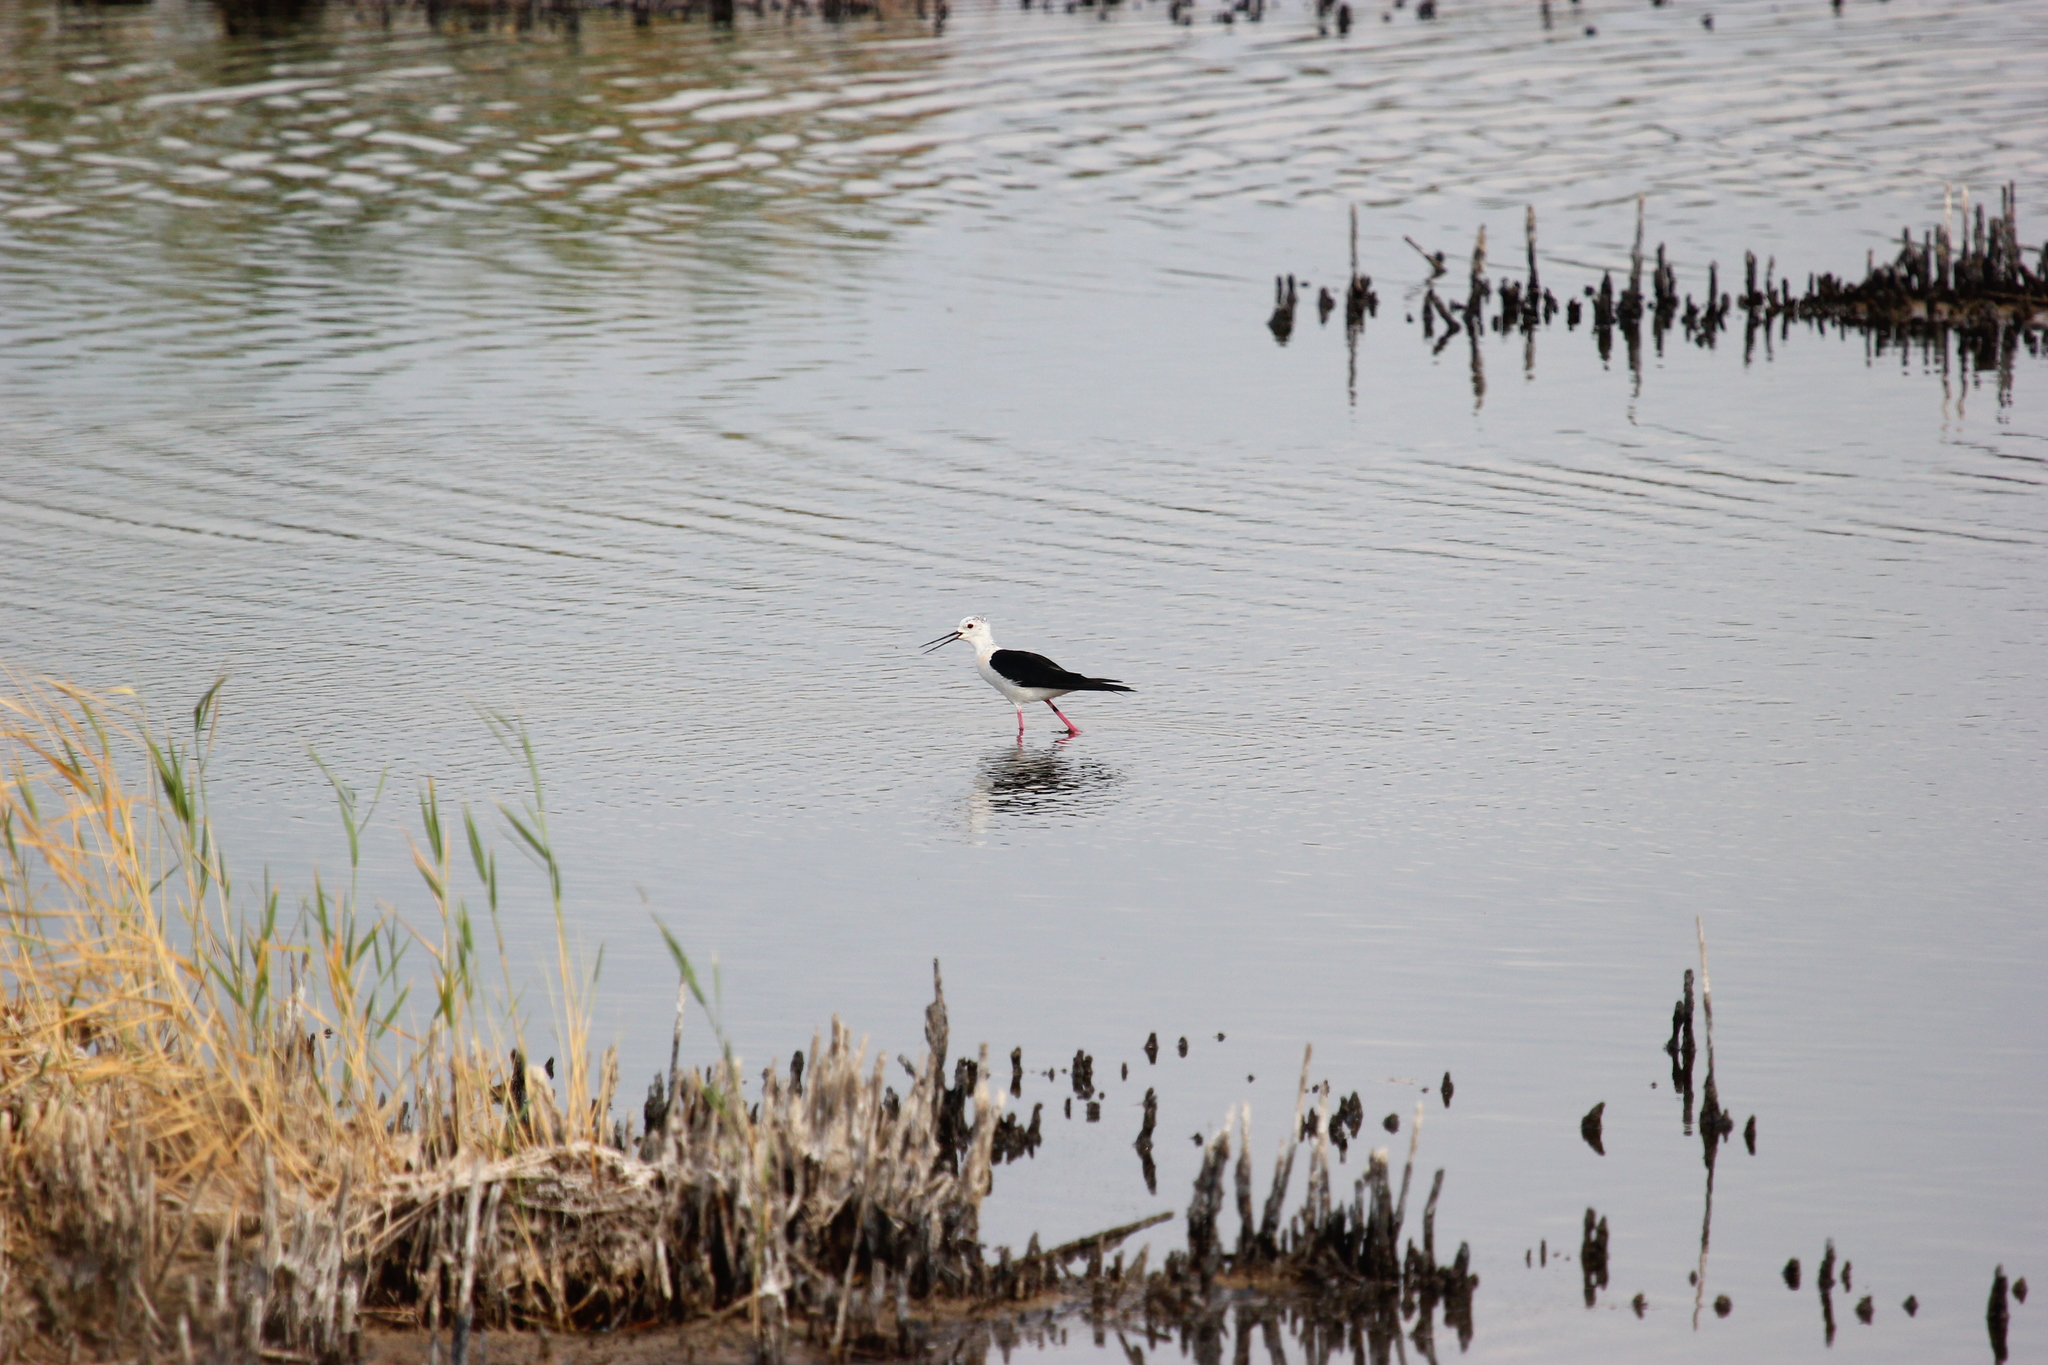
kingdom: Animalia
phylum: Chordata
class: Aves
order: Charadriiformes
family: Recurvirostridae
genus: Himantopus
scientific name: Himantopus himantopus
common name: Black-winged stilt
